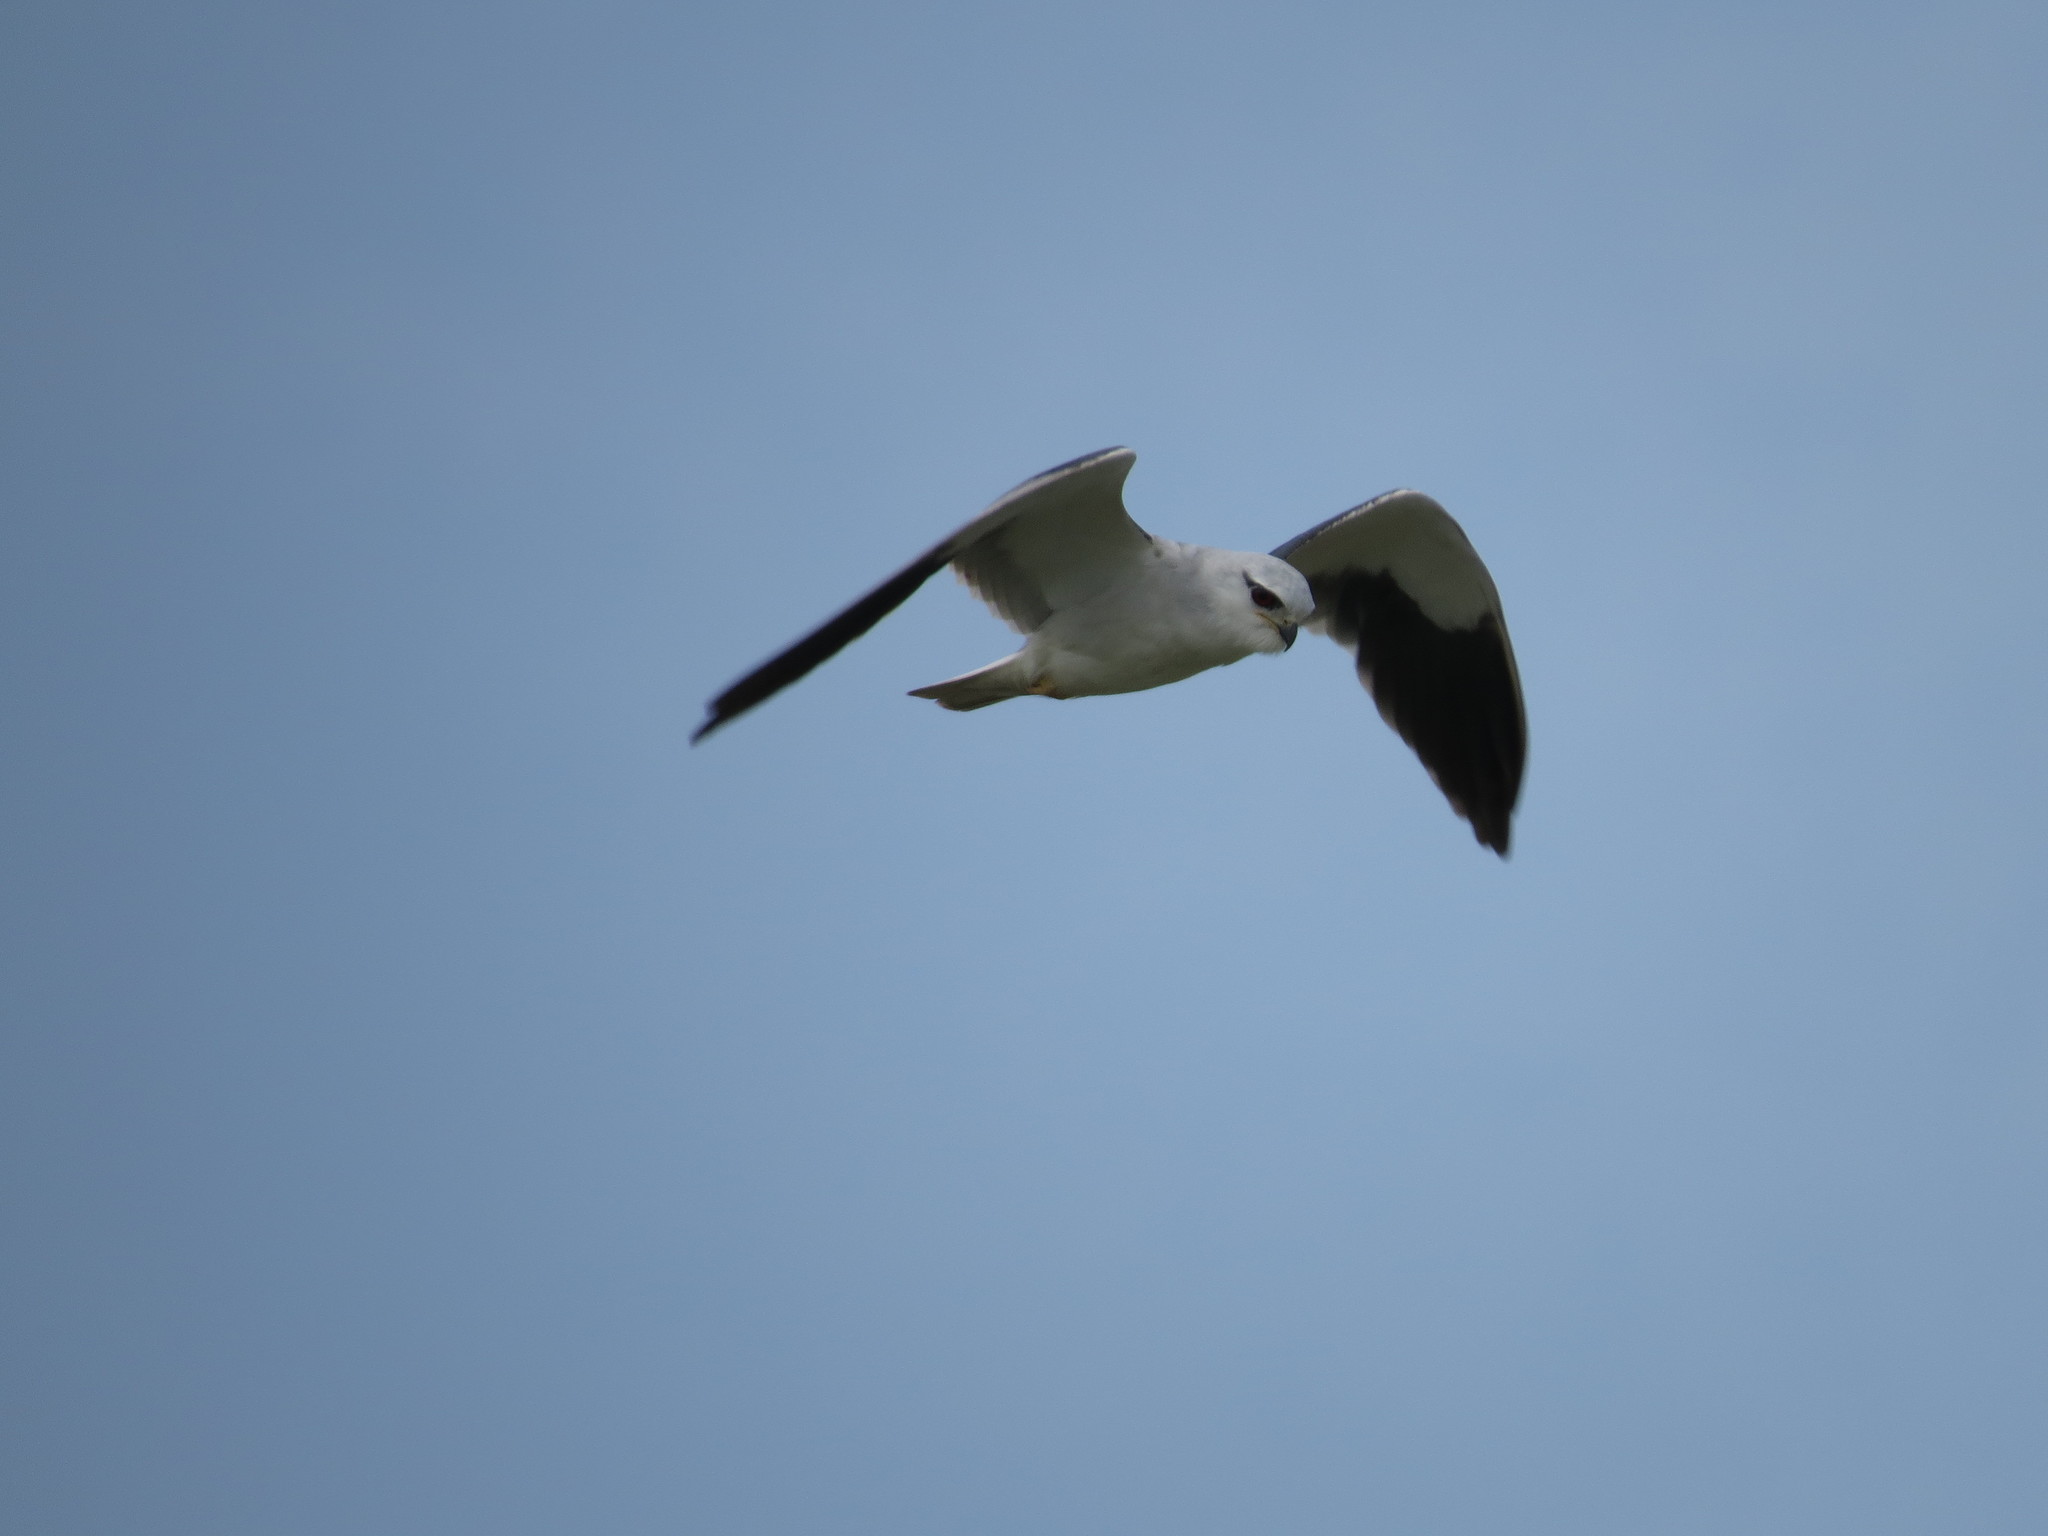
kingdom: Animalia
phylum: Chordata
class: Aves
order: Accipitriformes
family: Accipitridae
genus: Elanus
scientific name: Elanus caeruleus
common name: Black-winged kite
